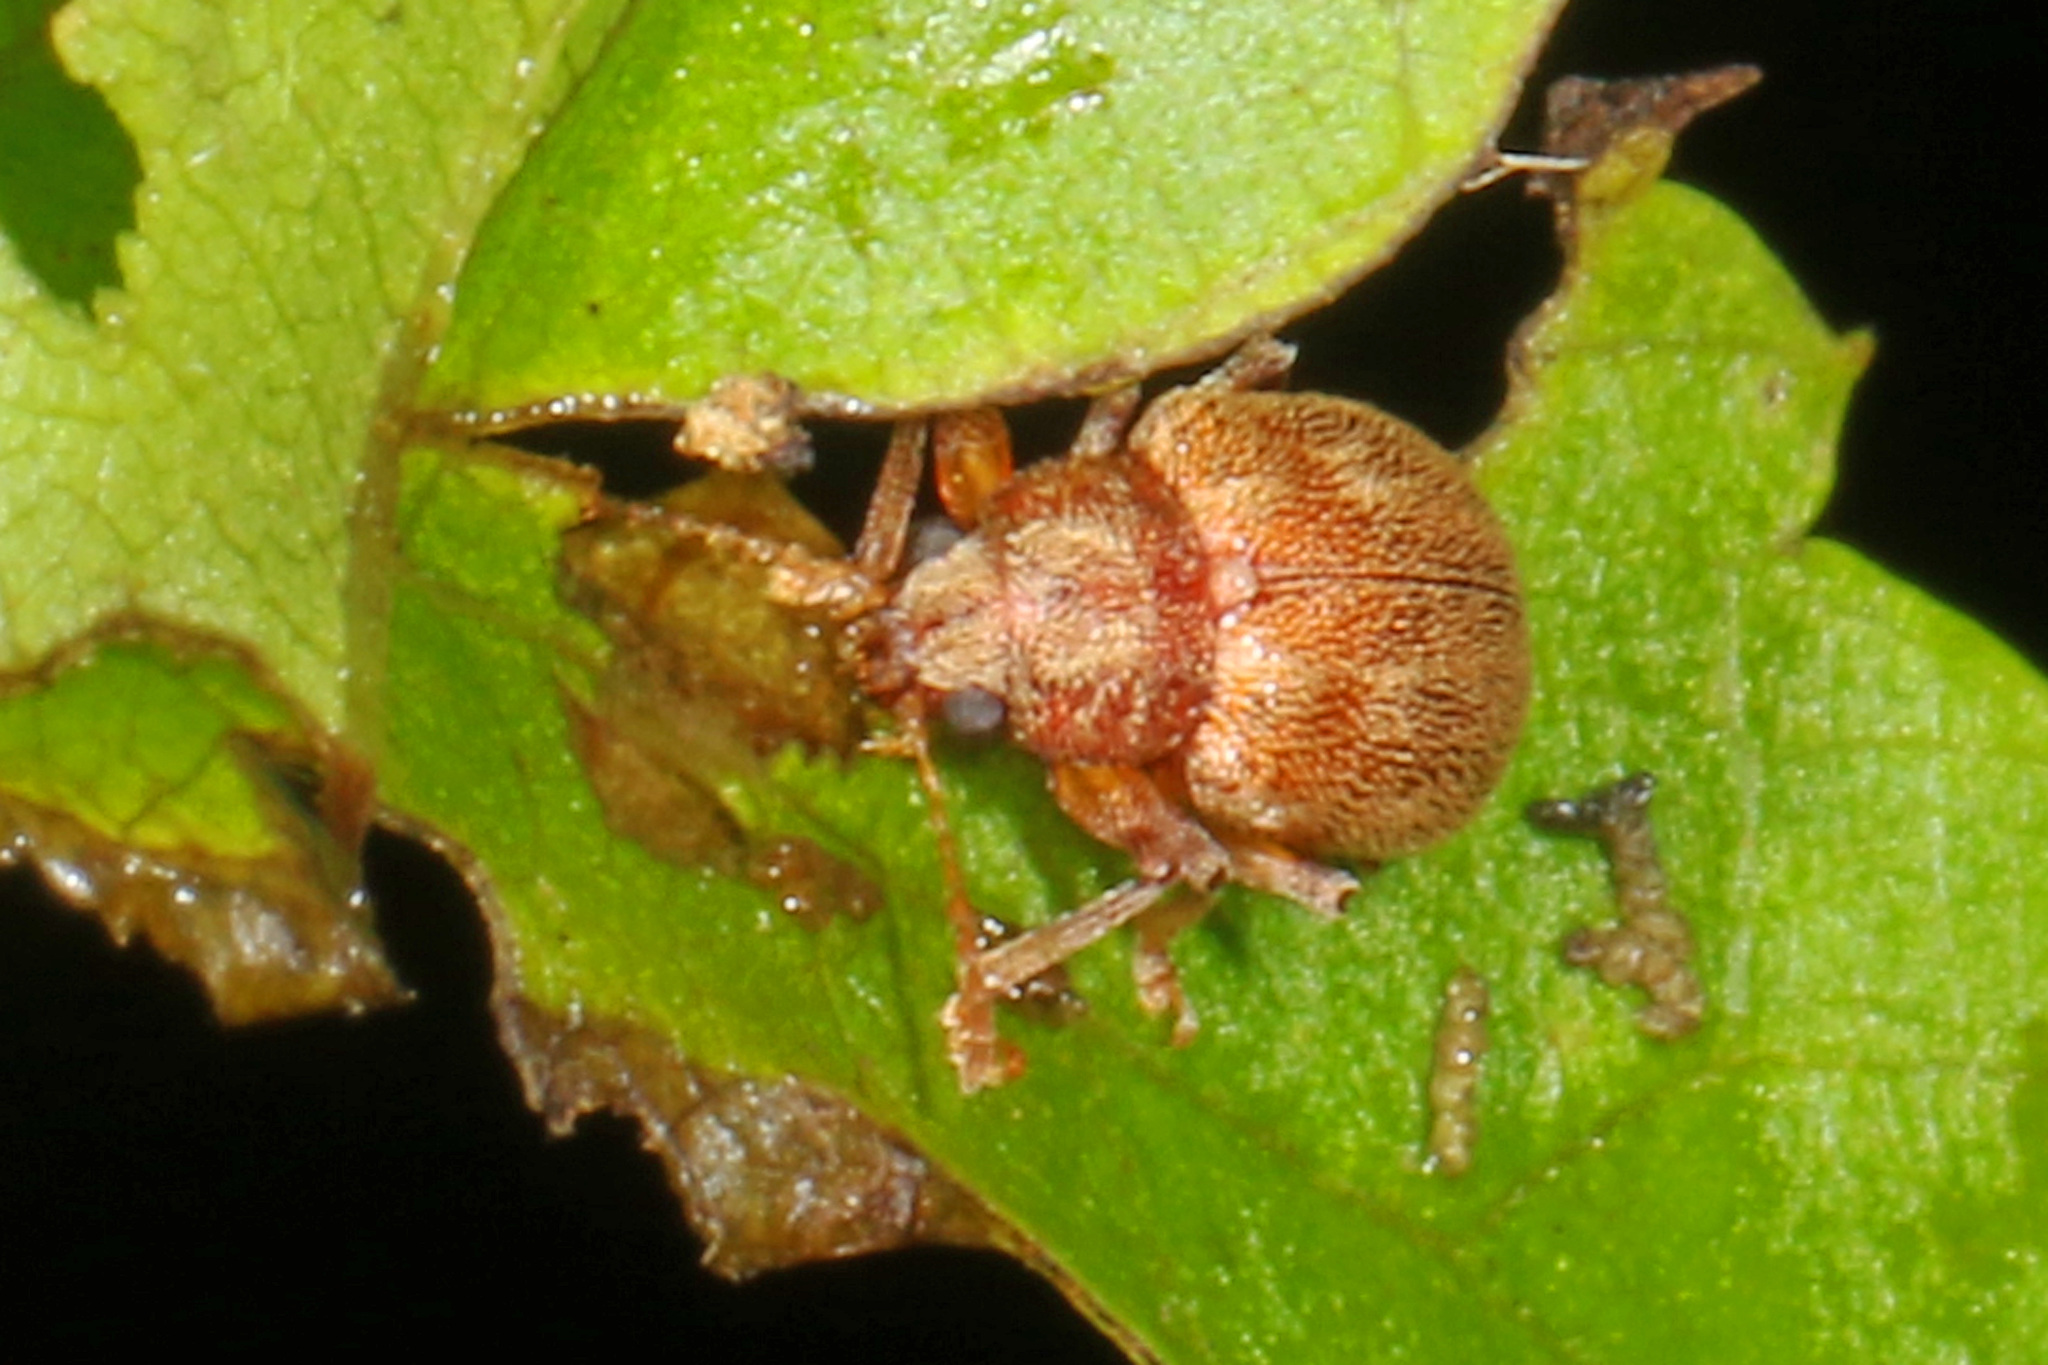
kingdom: Animalia
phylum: Arthropoda
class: Insecta
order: Coleoptera
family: Chrysomelidae
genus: Demotina
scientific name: Demotina modesta
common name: Leaf beetle
